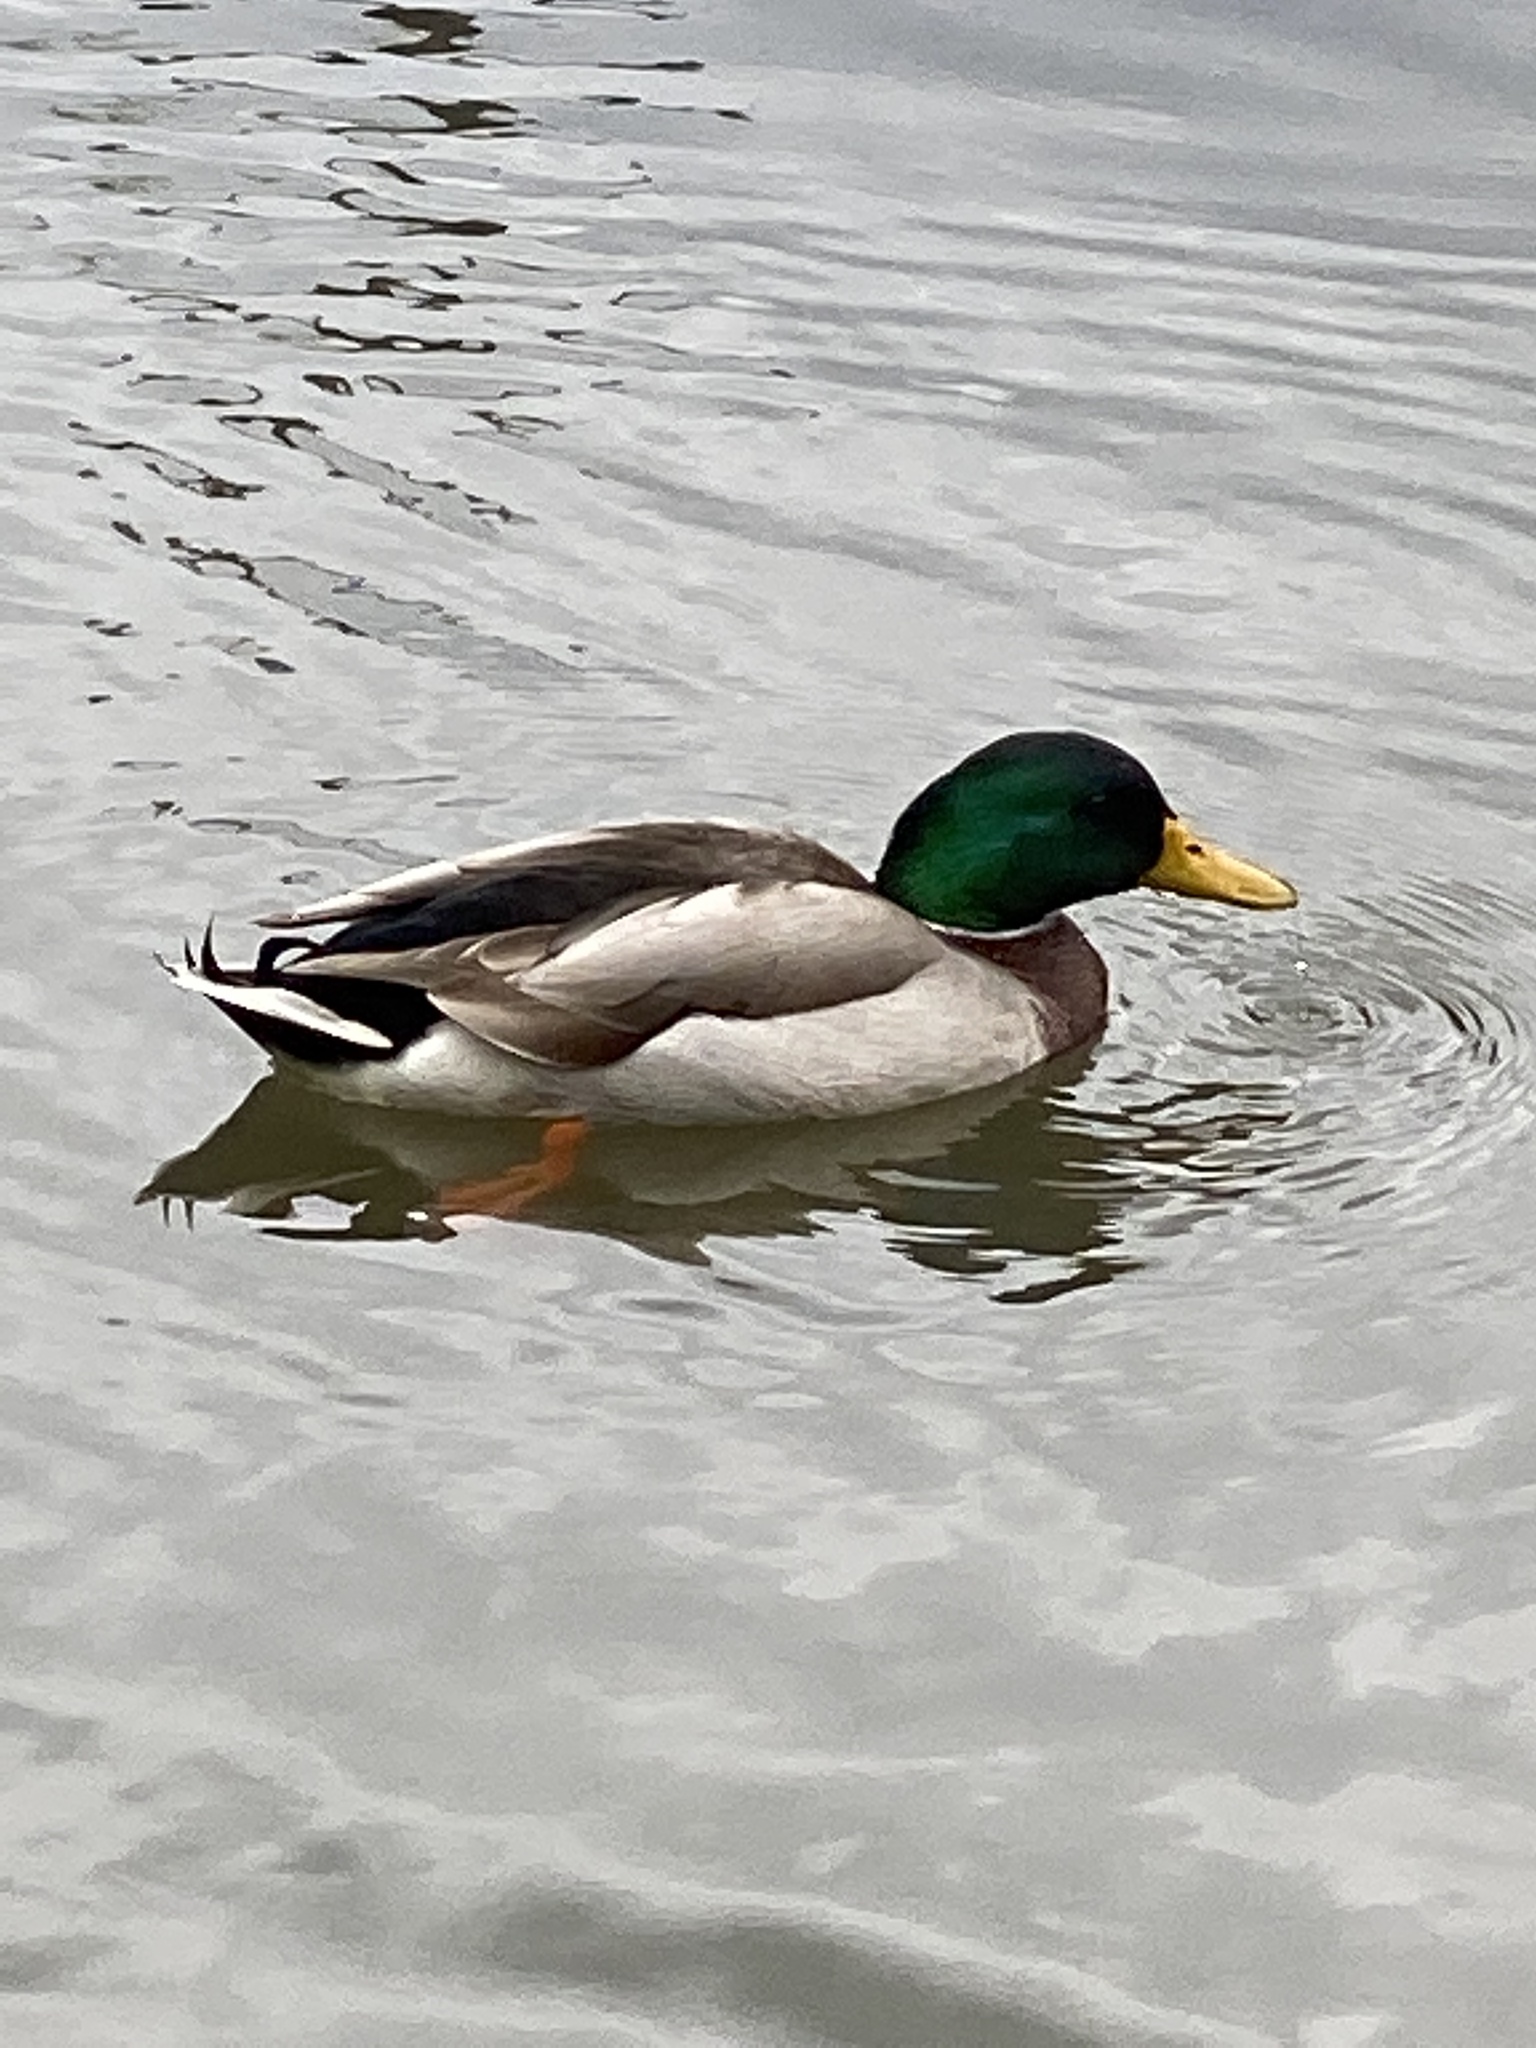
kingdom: Animalia
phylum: Chordata
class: Aves
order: Anseriformes
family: Anatidae
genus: Anas
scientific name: Anas platyrhynchos
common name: Mallard
